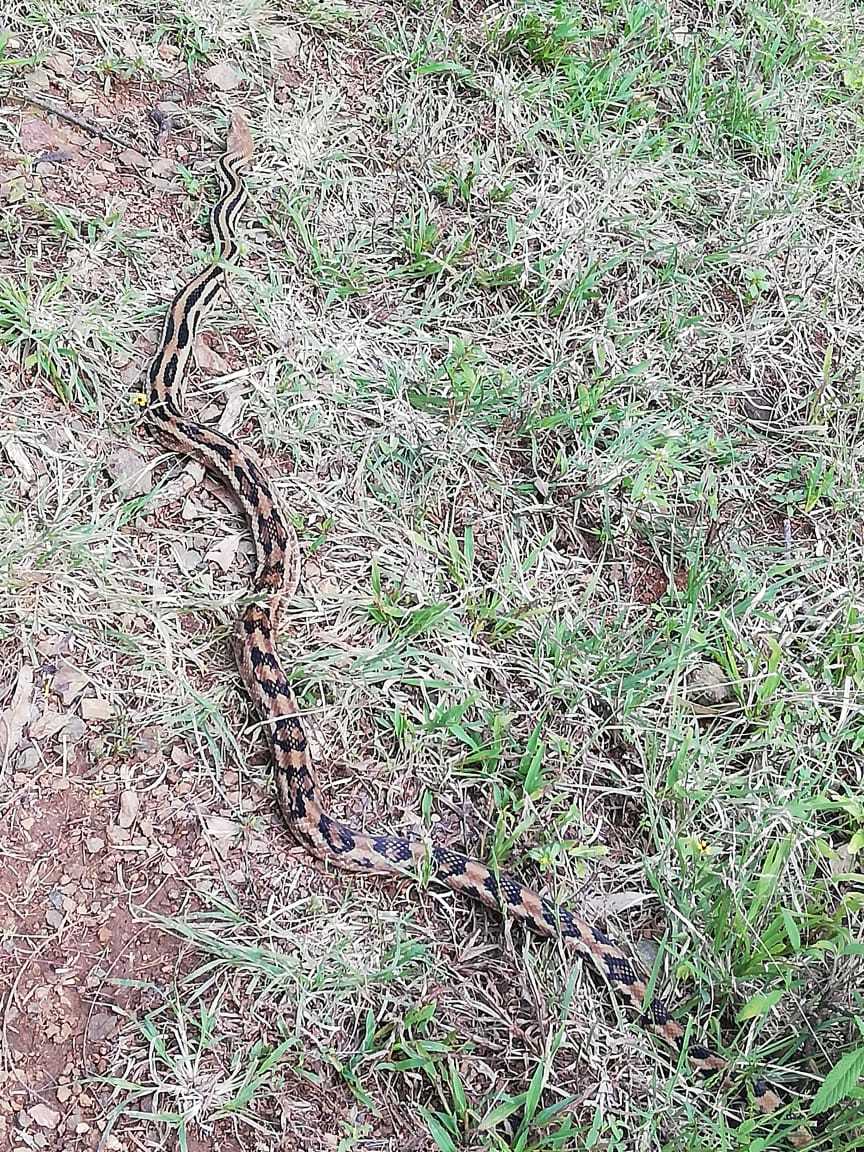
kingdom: Animalia
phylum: Chordata
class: Squamata
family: Colubridae
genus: Pituophis
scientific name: Pituophis lineaticollis
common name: Cincuate bull snake
